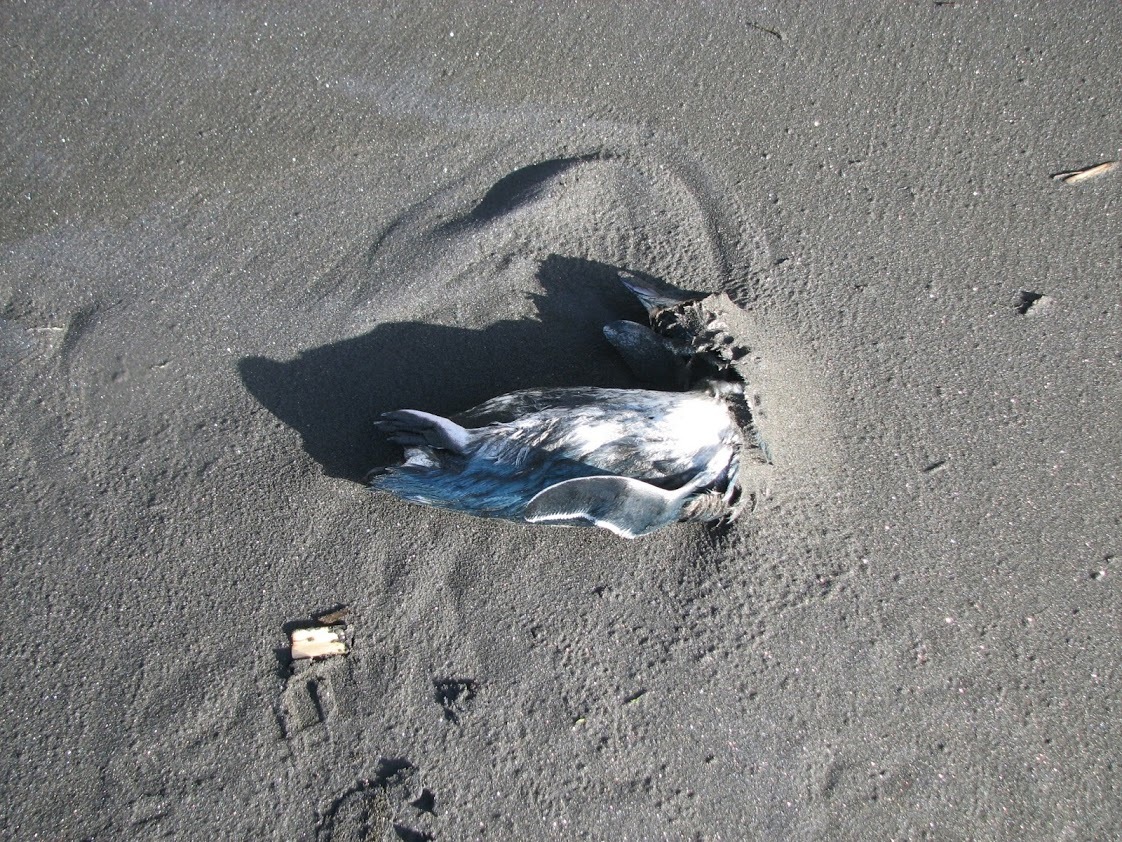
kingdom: Animalia
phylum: Chordata
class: Aves
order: Sphenisciformes
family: Spheniscidae
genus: Eudyptula
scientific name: Eudyptula minor
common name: Little penguin
